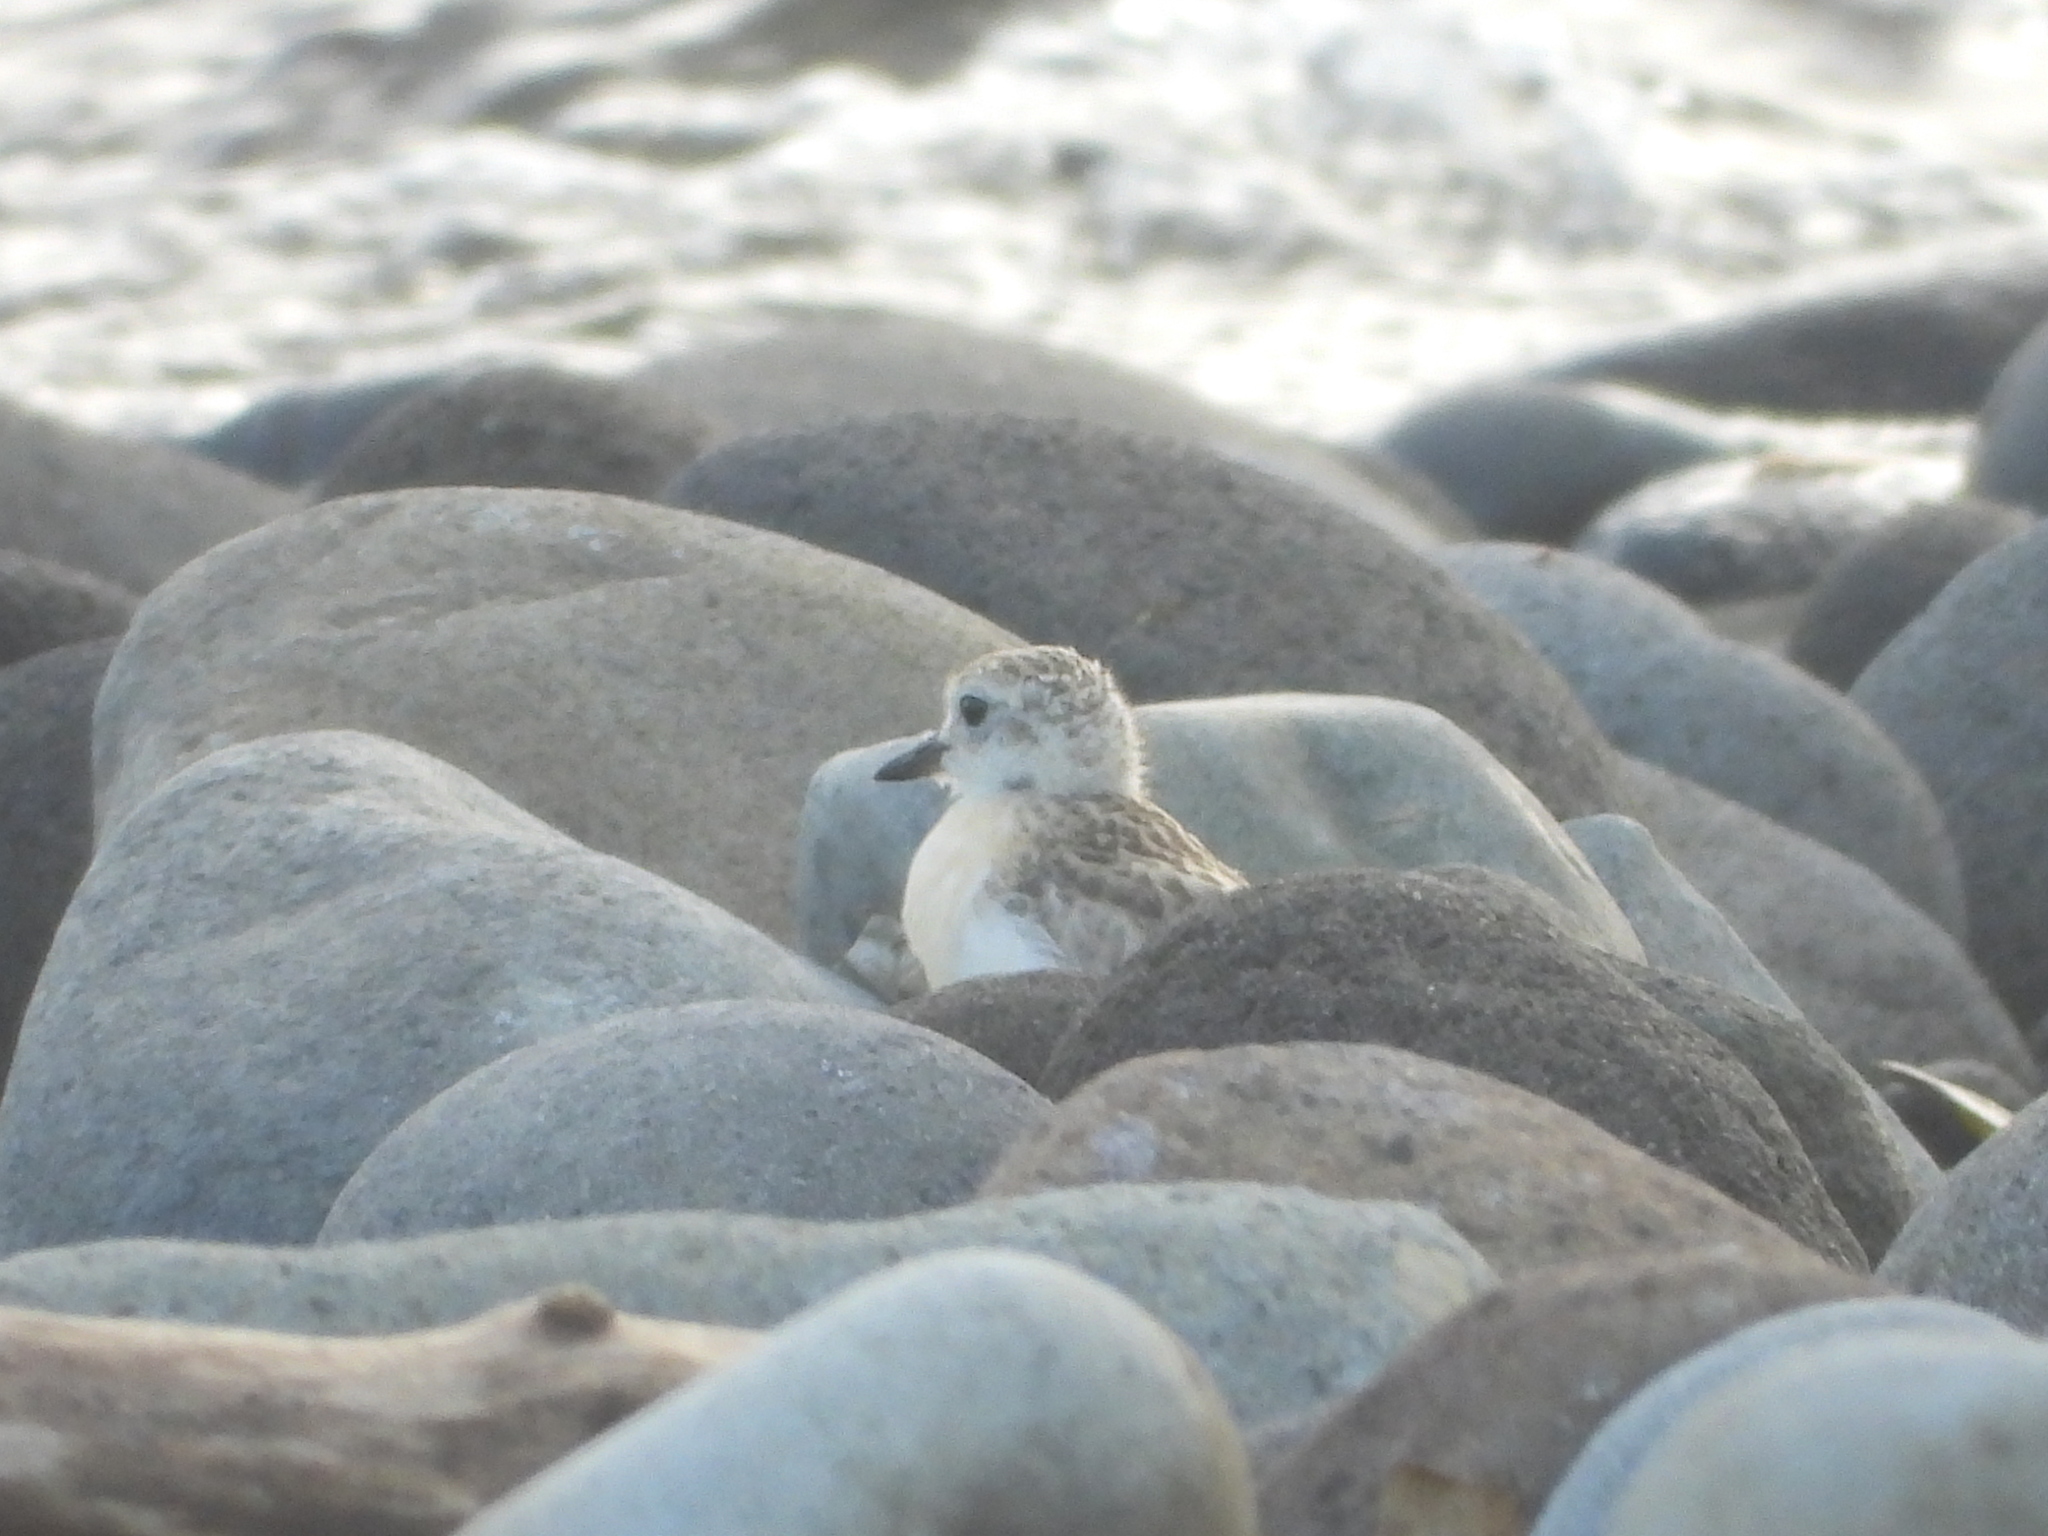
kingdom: Animalia
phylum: Chordata
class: Aves
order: Charadriiformes
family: Charadriidae
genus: Anarhynchus
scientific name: Anarhynchus
